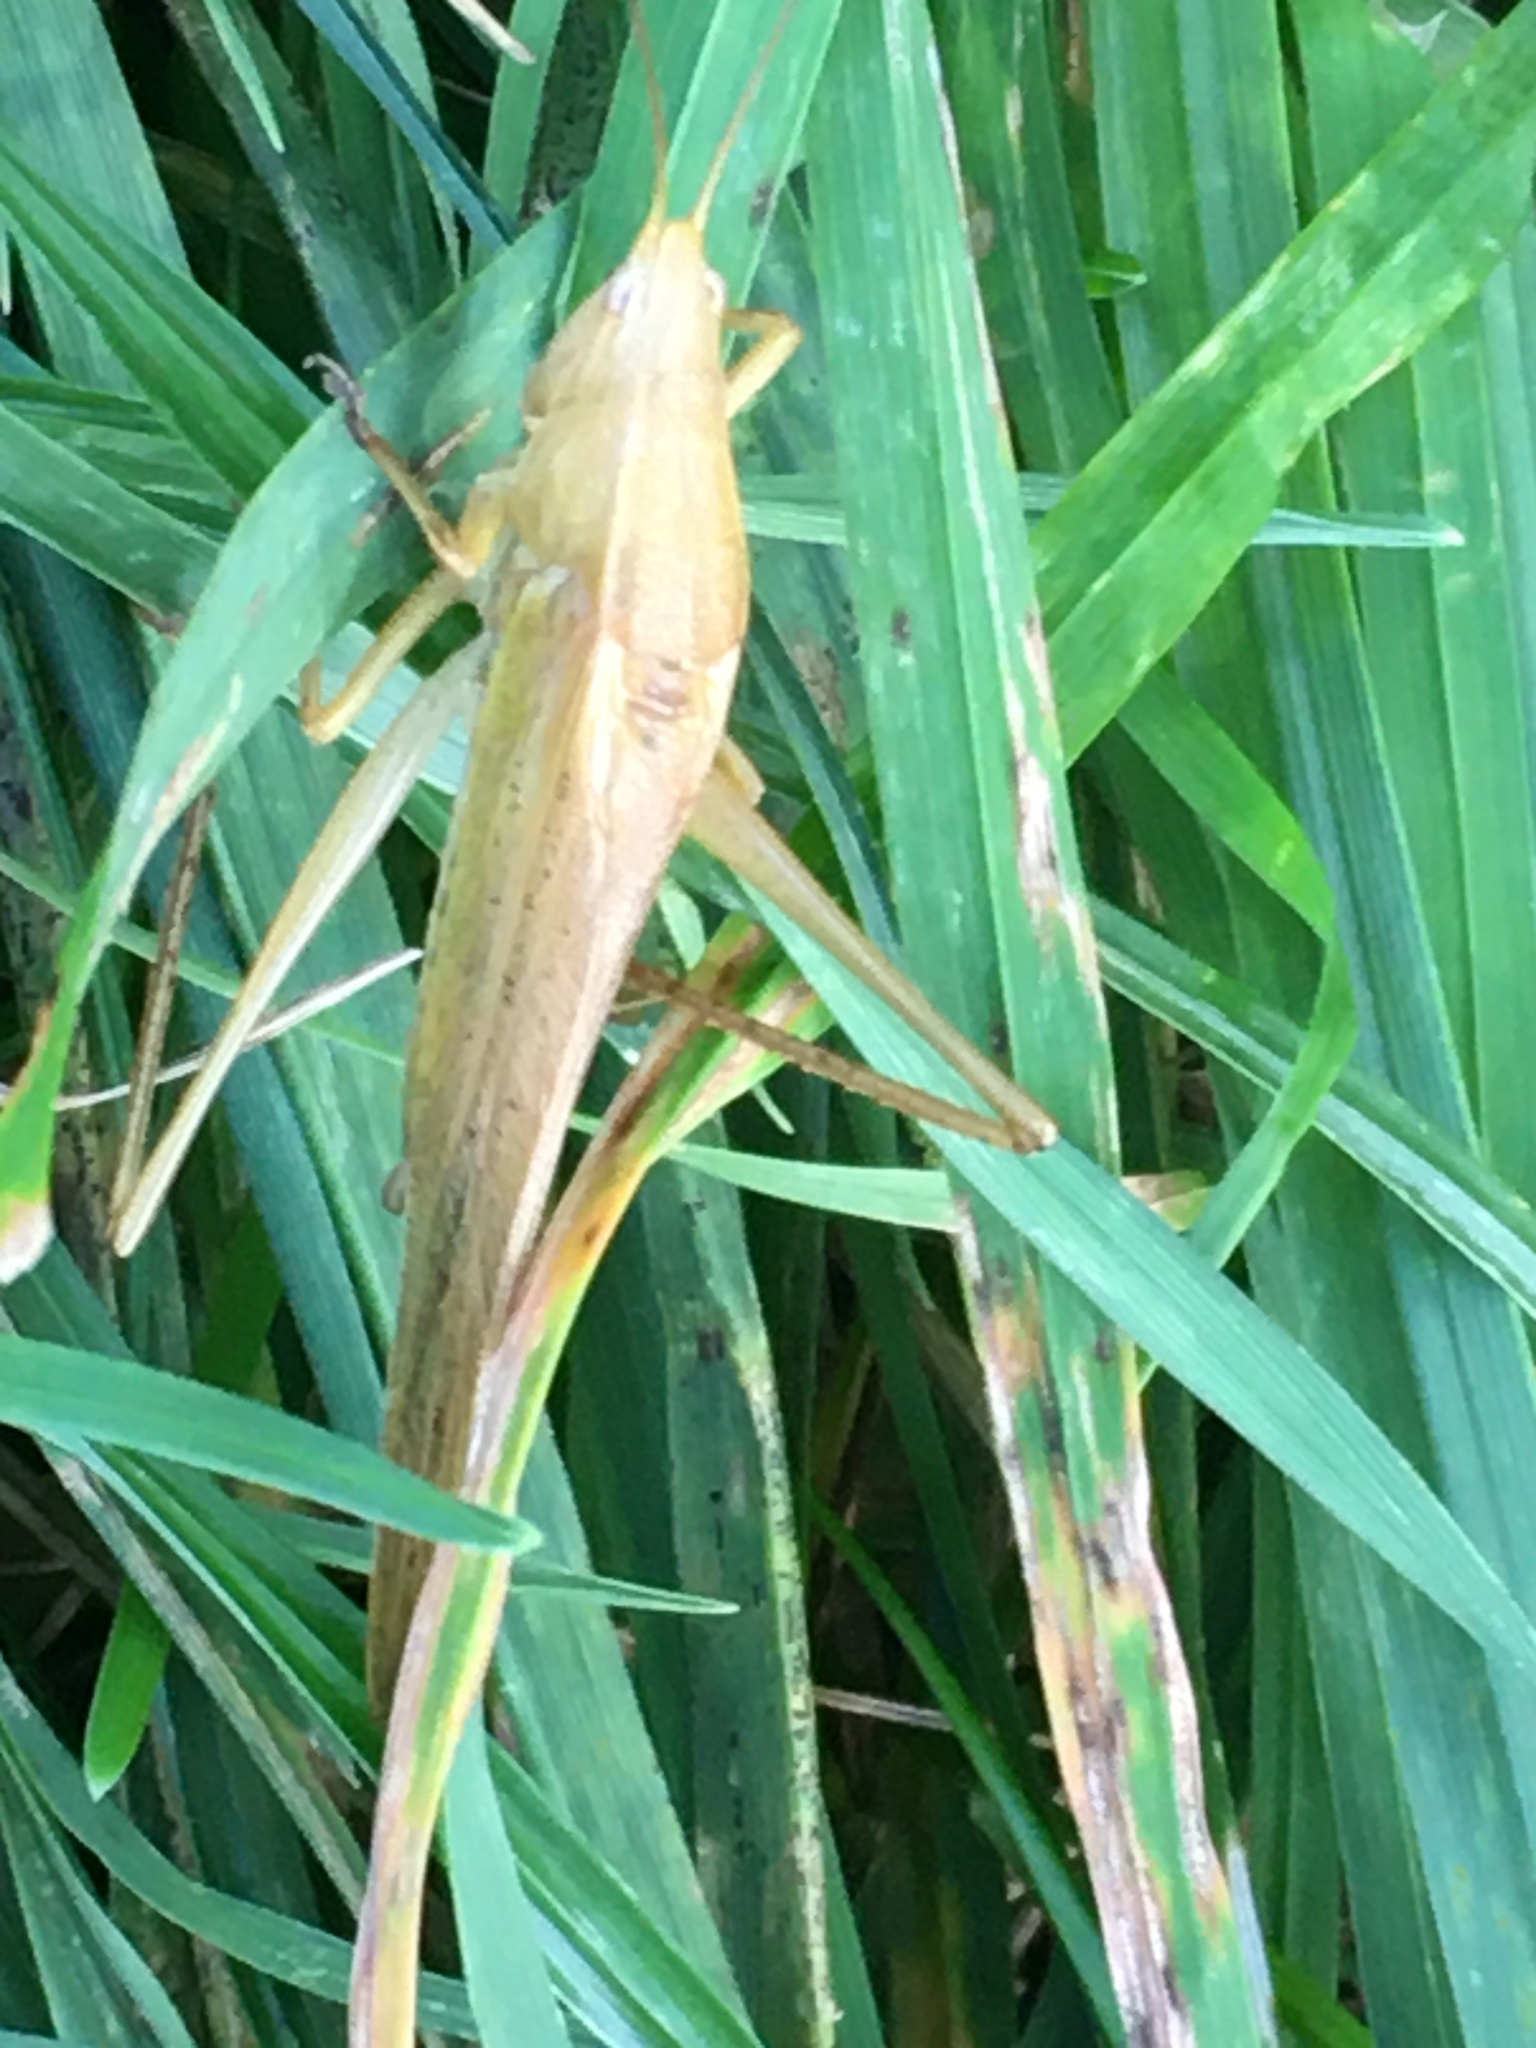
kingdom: Animalia
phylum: Arthropoda
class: Insecta
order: Orthoptera
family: Tettigoniidae
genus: Ruspolia
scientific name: Ruspolia nitidula
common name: Large conehead
